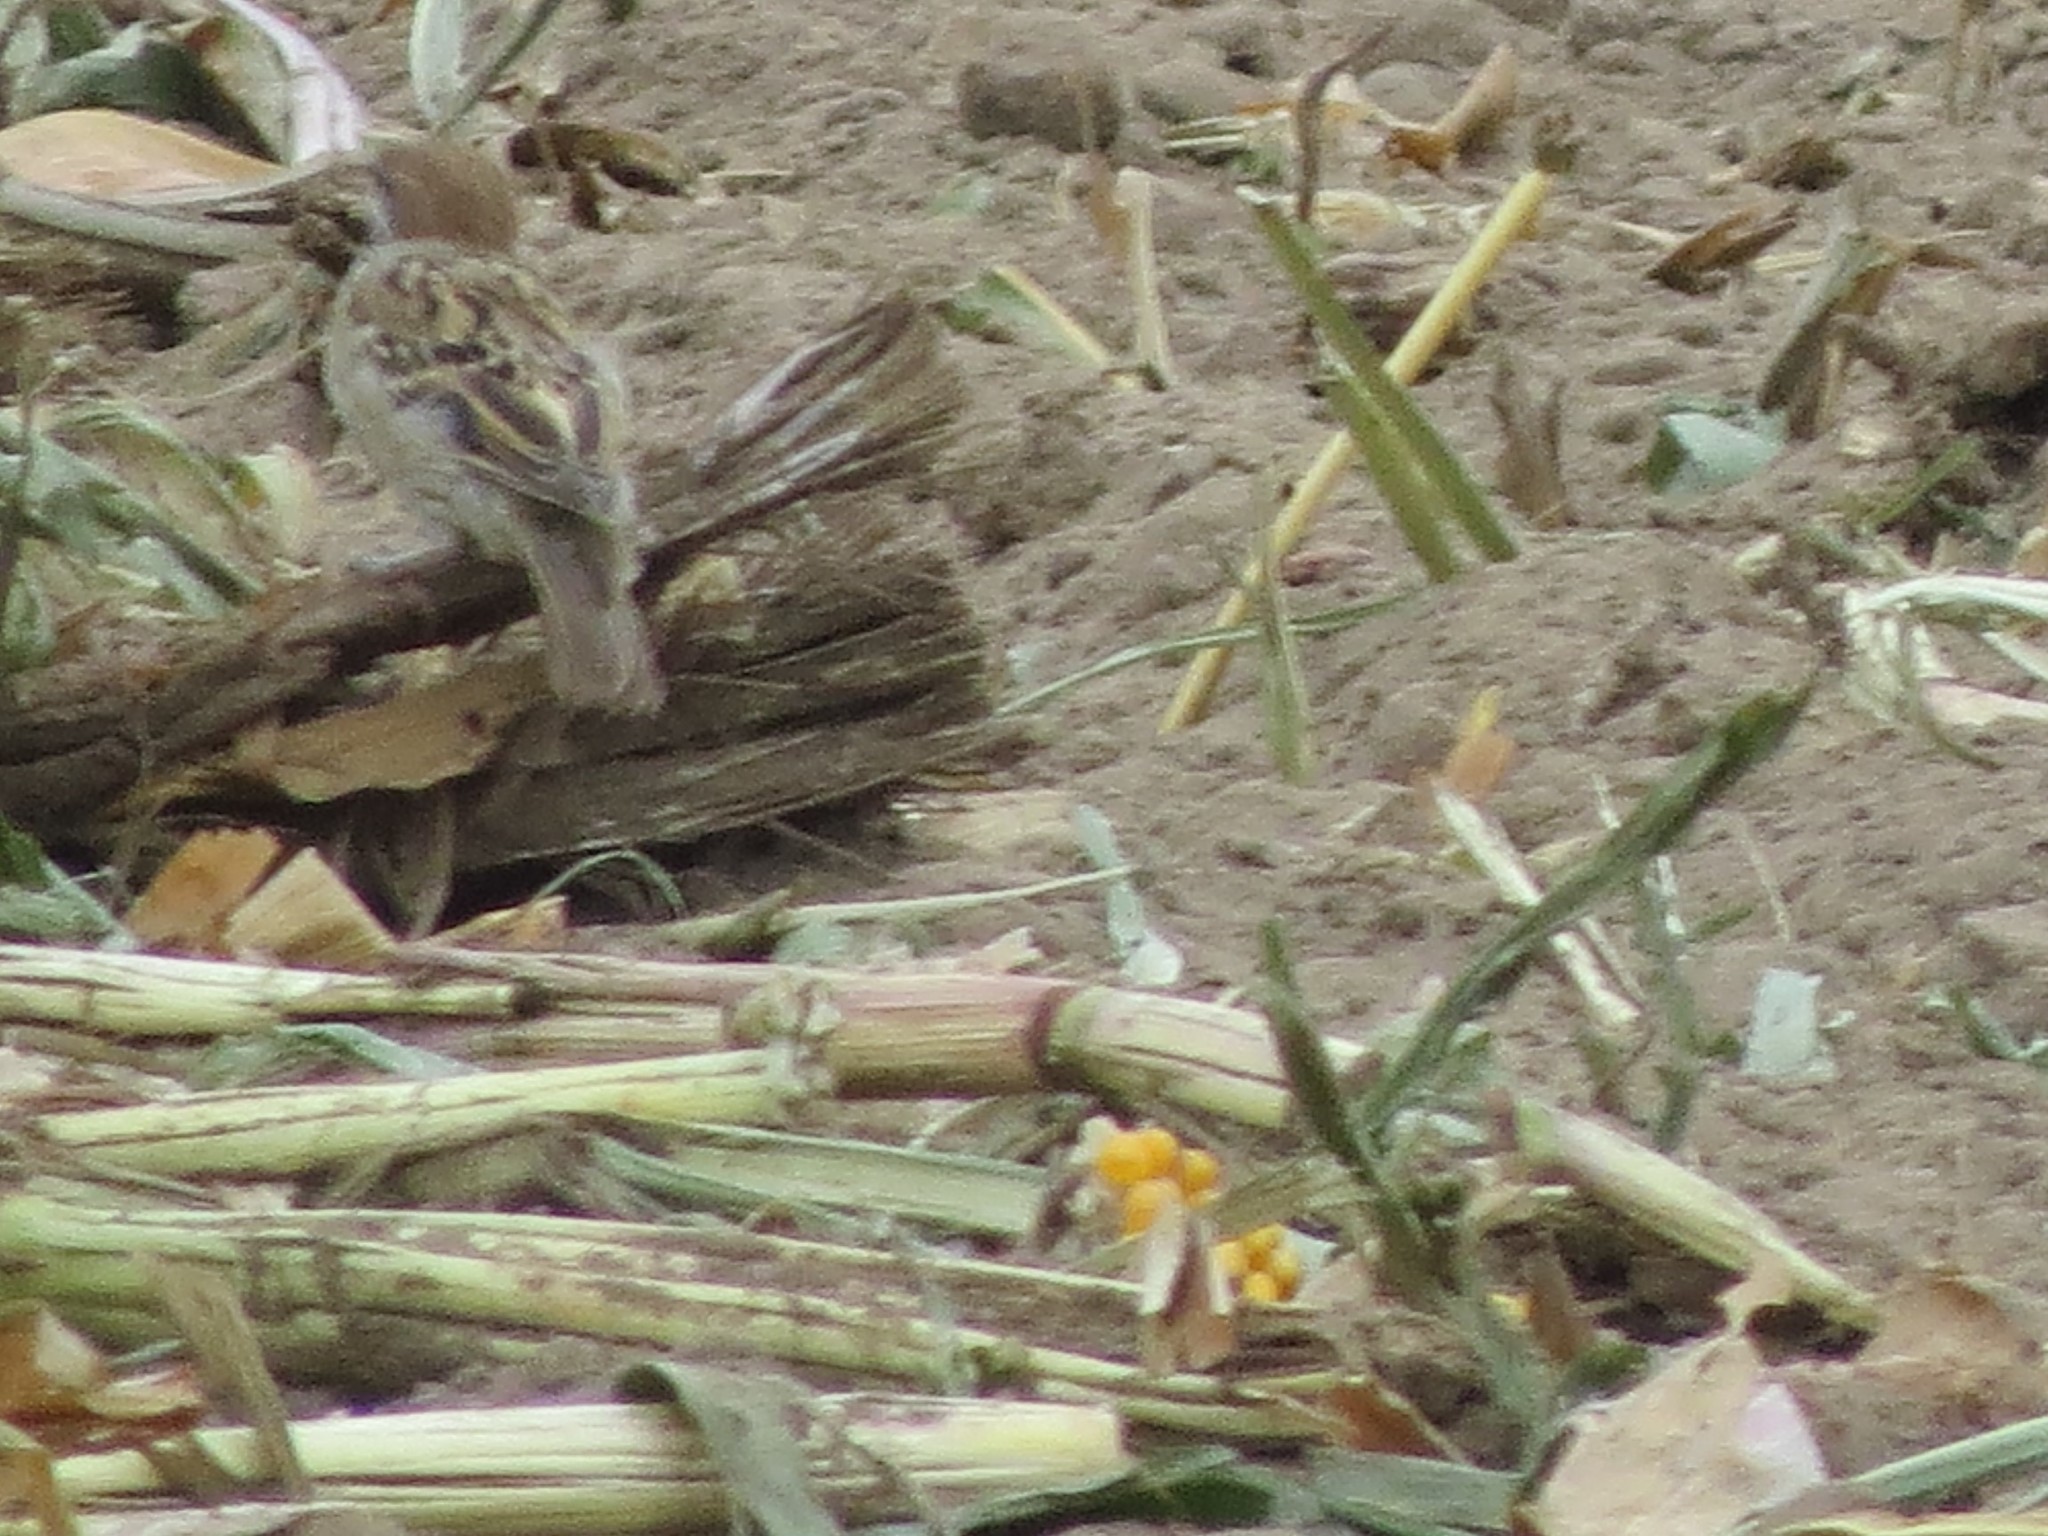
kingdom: Animalia
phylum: Chordata
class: Aves
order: Passeriformes
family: Passeridae
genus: Passer
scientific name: Passer montanus
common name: Eurasian tree sparrow
